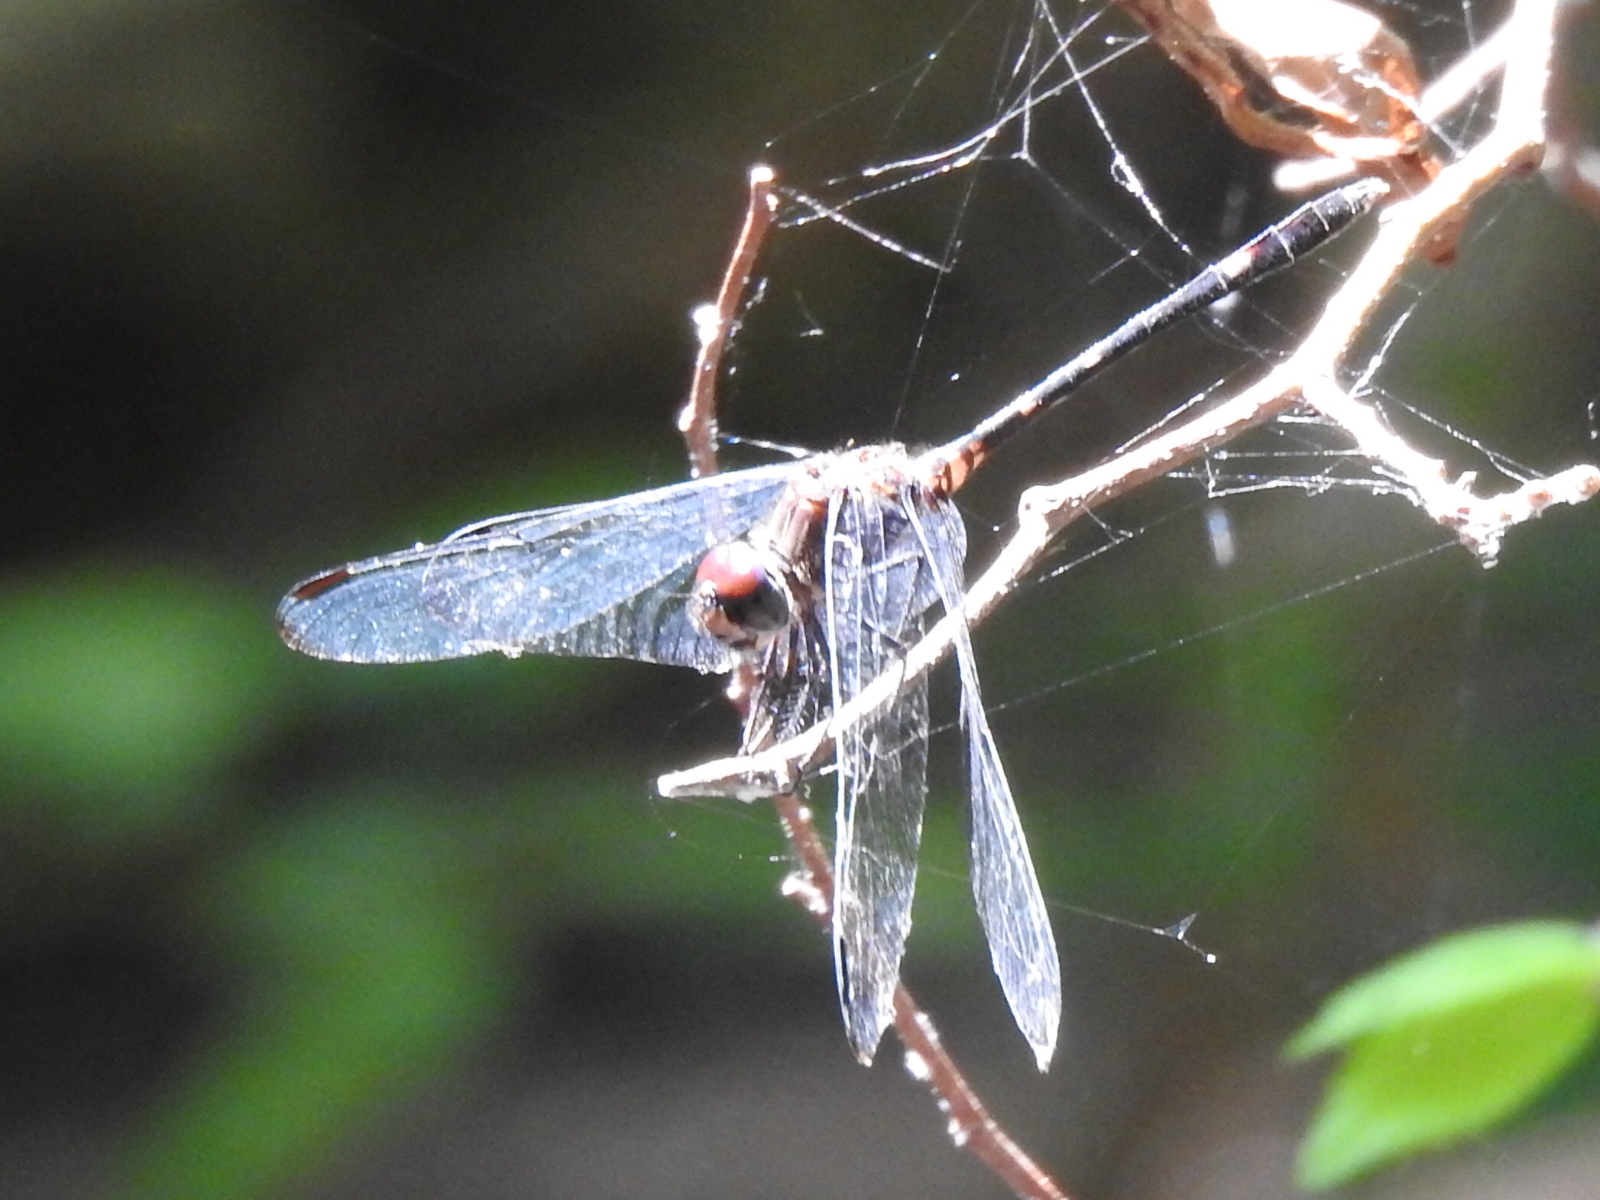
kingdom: Animalia
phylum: Arthropoda
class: Insecta
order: Odonata
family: Libellulidae
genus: Dythemis
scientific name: Dythemis velox
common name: Swift setwing
